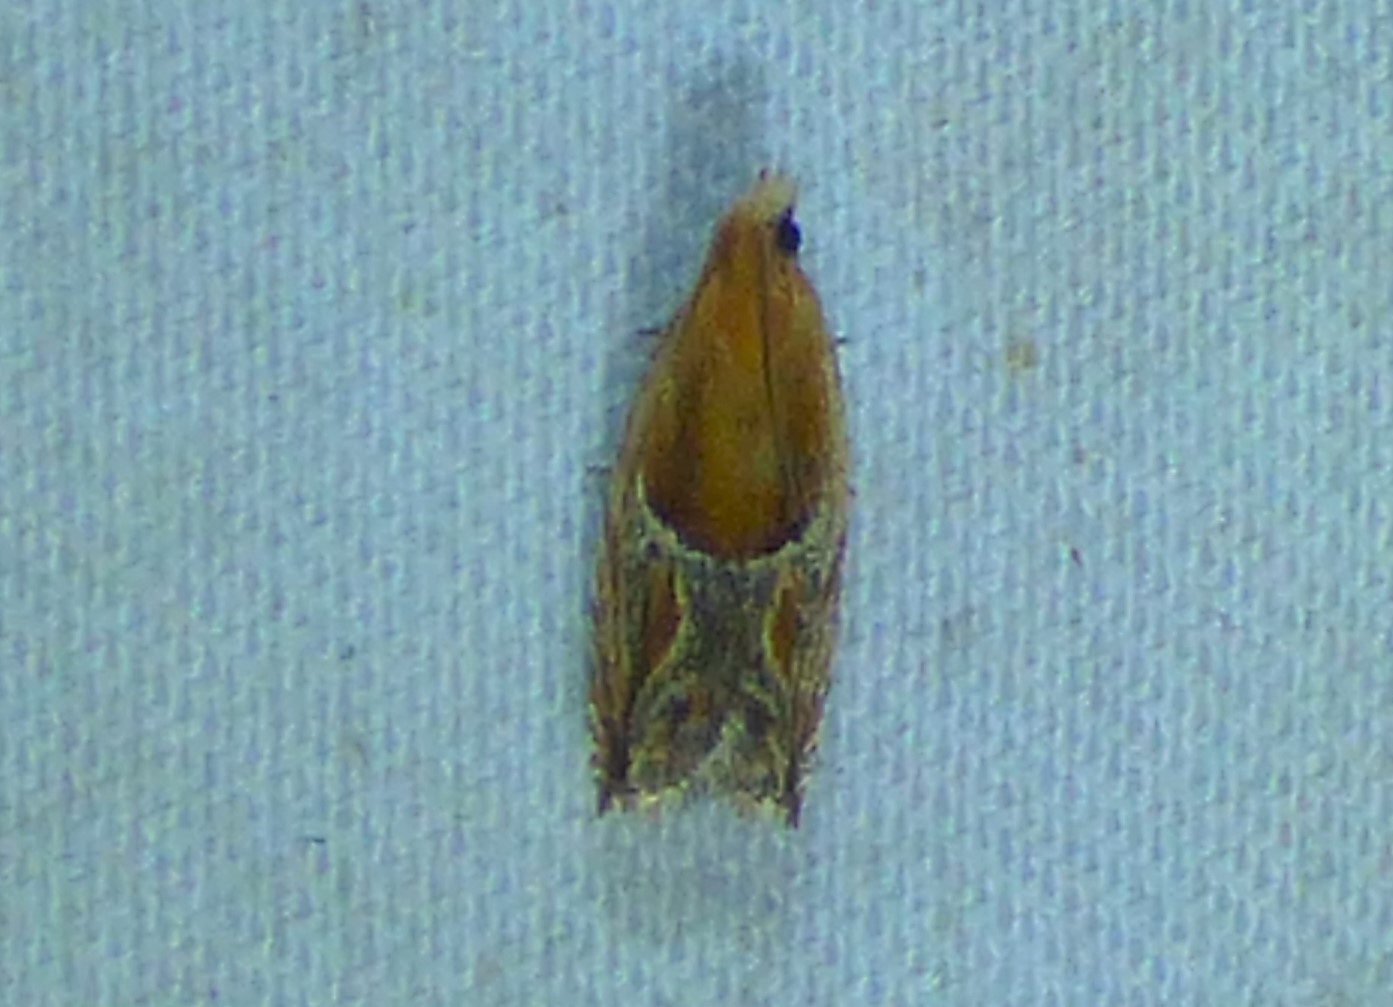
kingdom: Animalia
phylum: Arthropoda
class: Insecta
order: Lepidoptera
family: Tortricidae
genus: Ancylis
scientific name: Ancylis comptana
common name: Little roller
